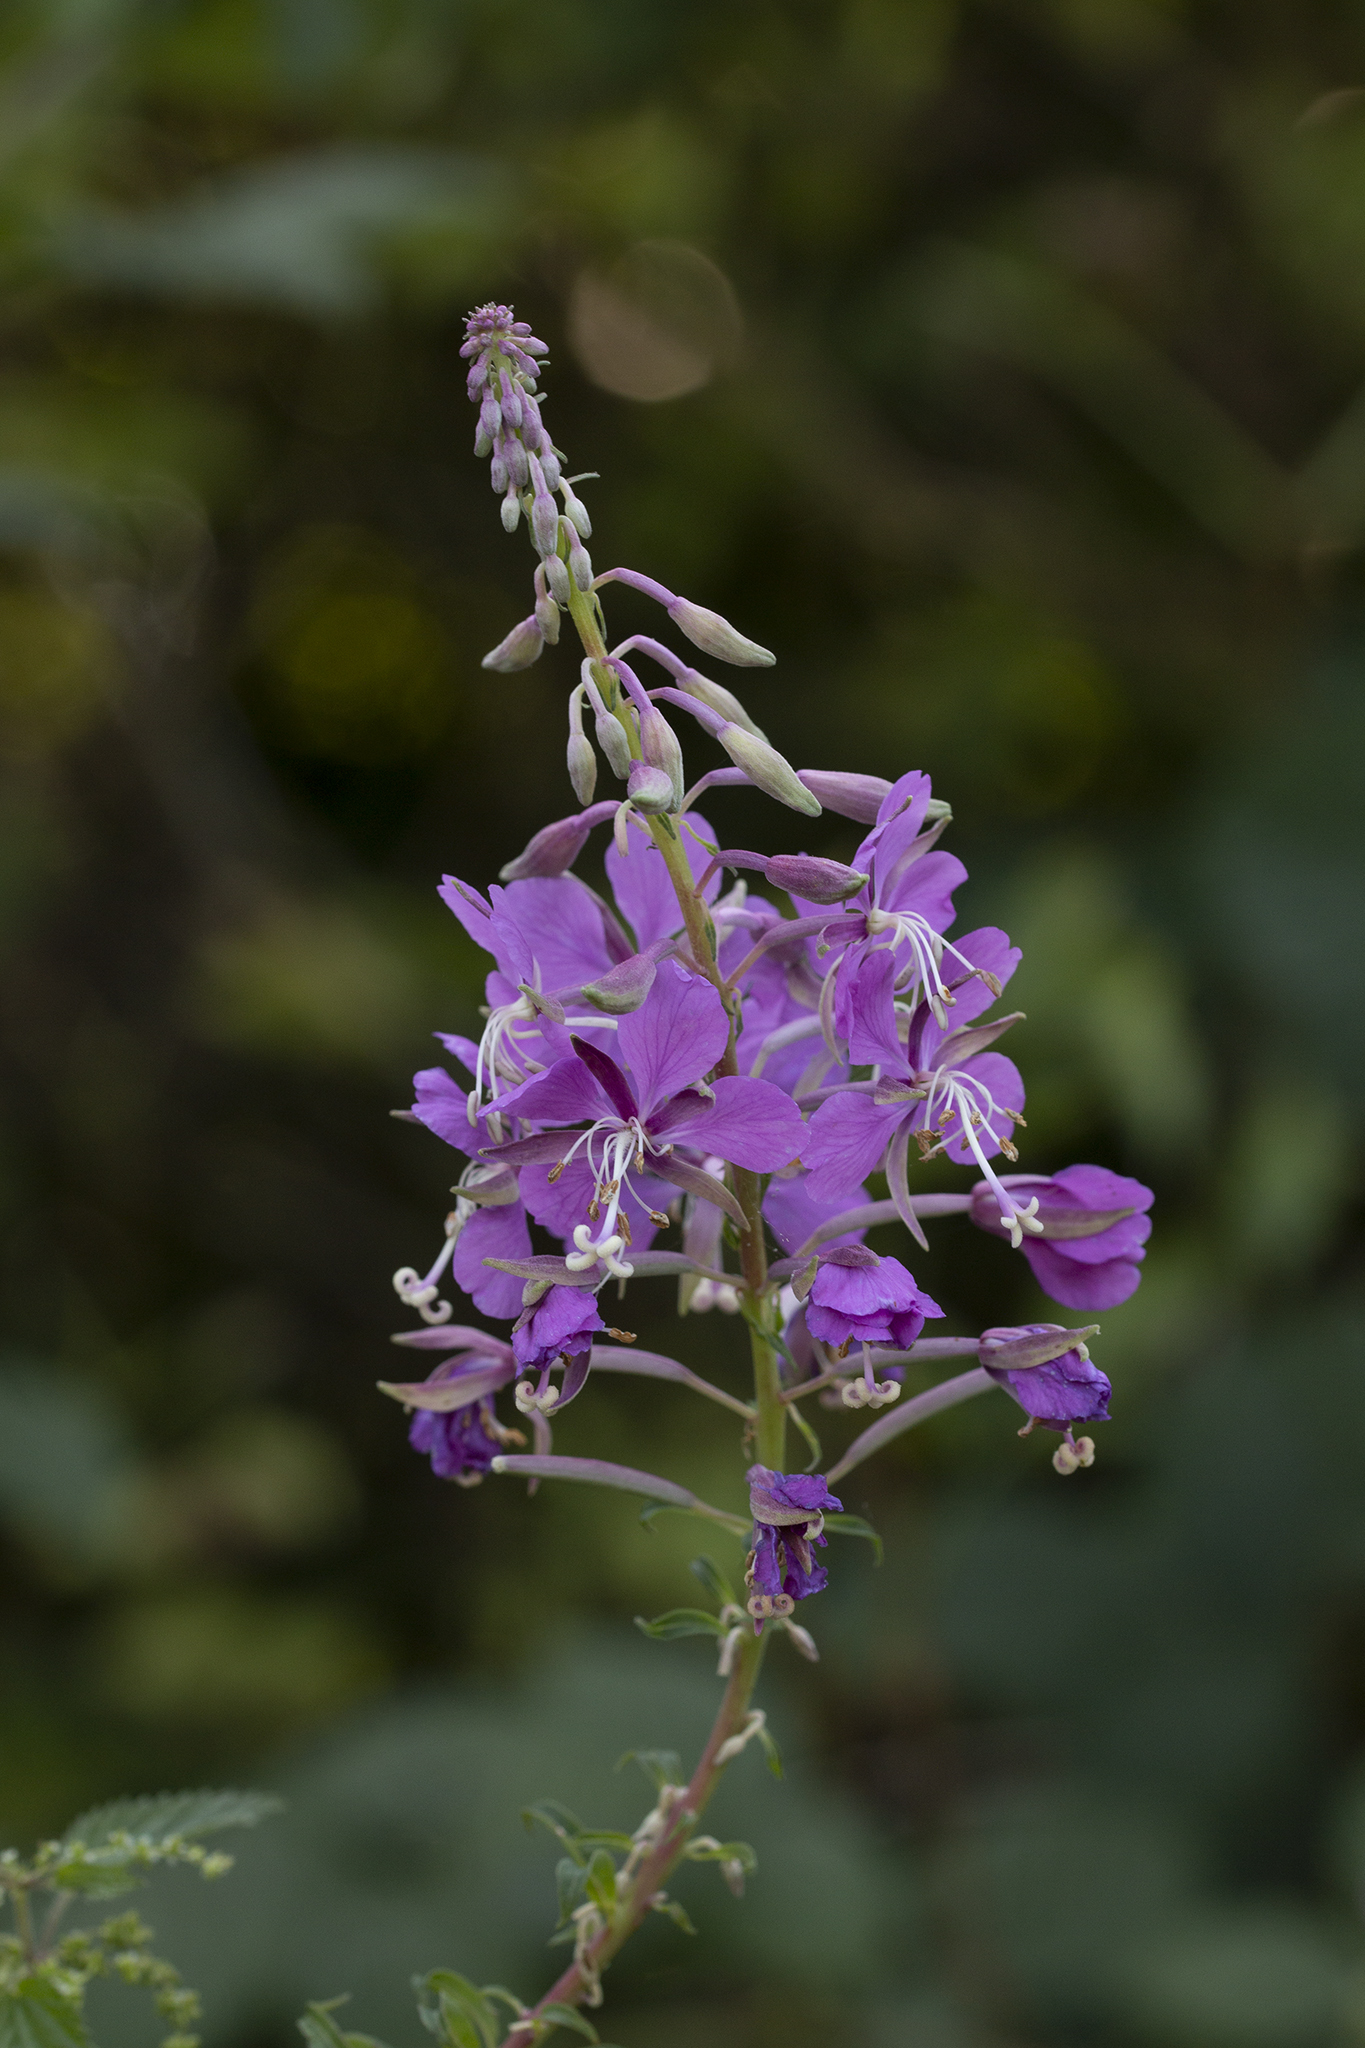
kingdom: Plantae
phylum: Tracheophyta
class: Magnoliopsida
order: Myrtales
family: Onagraceae
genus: Chamaenerion
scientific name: Chamaenerion angustifolium
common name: Fireweed
